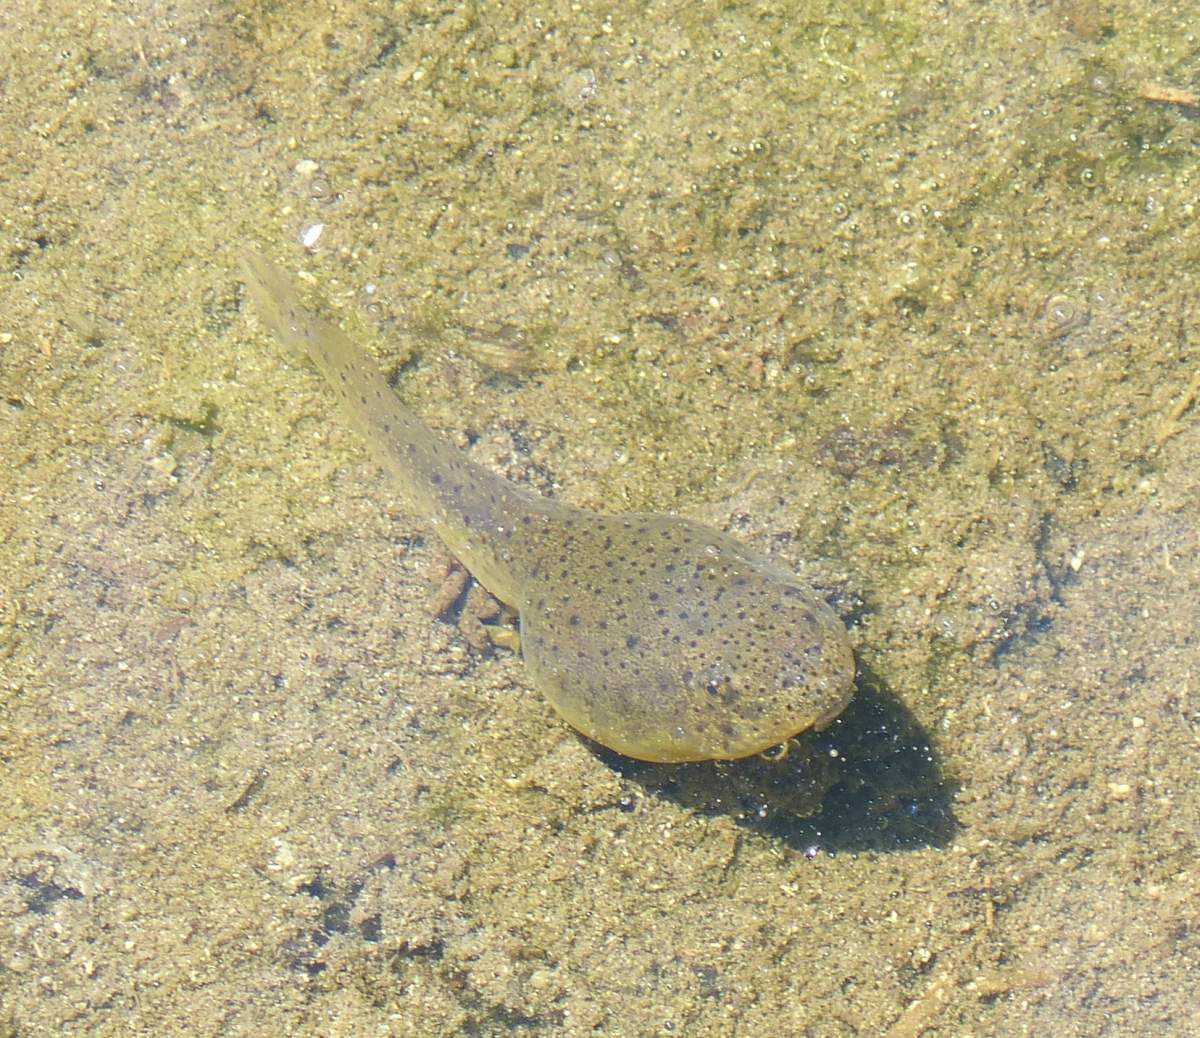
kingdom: Animalia
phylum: Chordata
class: Amphibia
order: Anura
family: Ranidae
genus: Lithobates
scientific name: Lithobates catesbeianus
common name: American bullfrog
